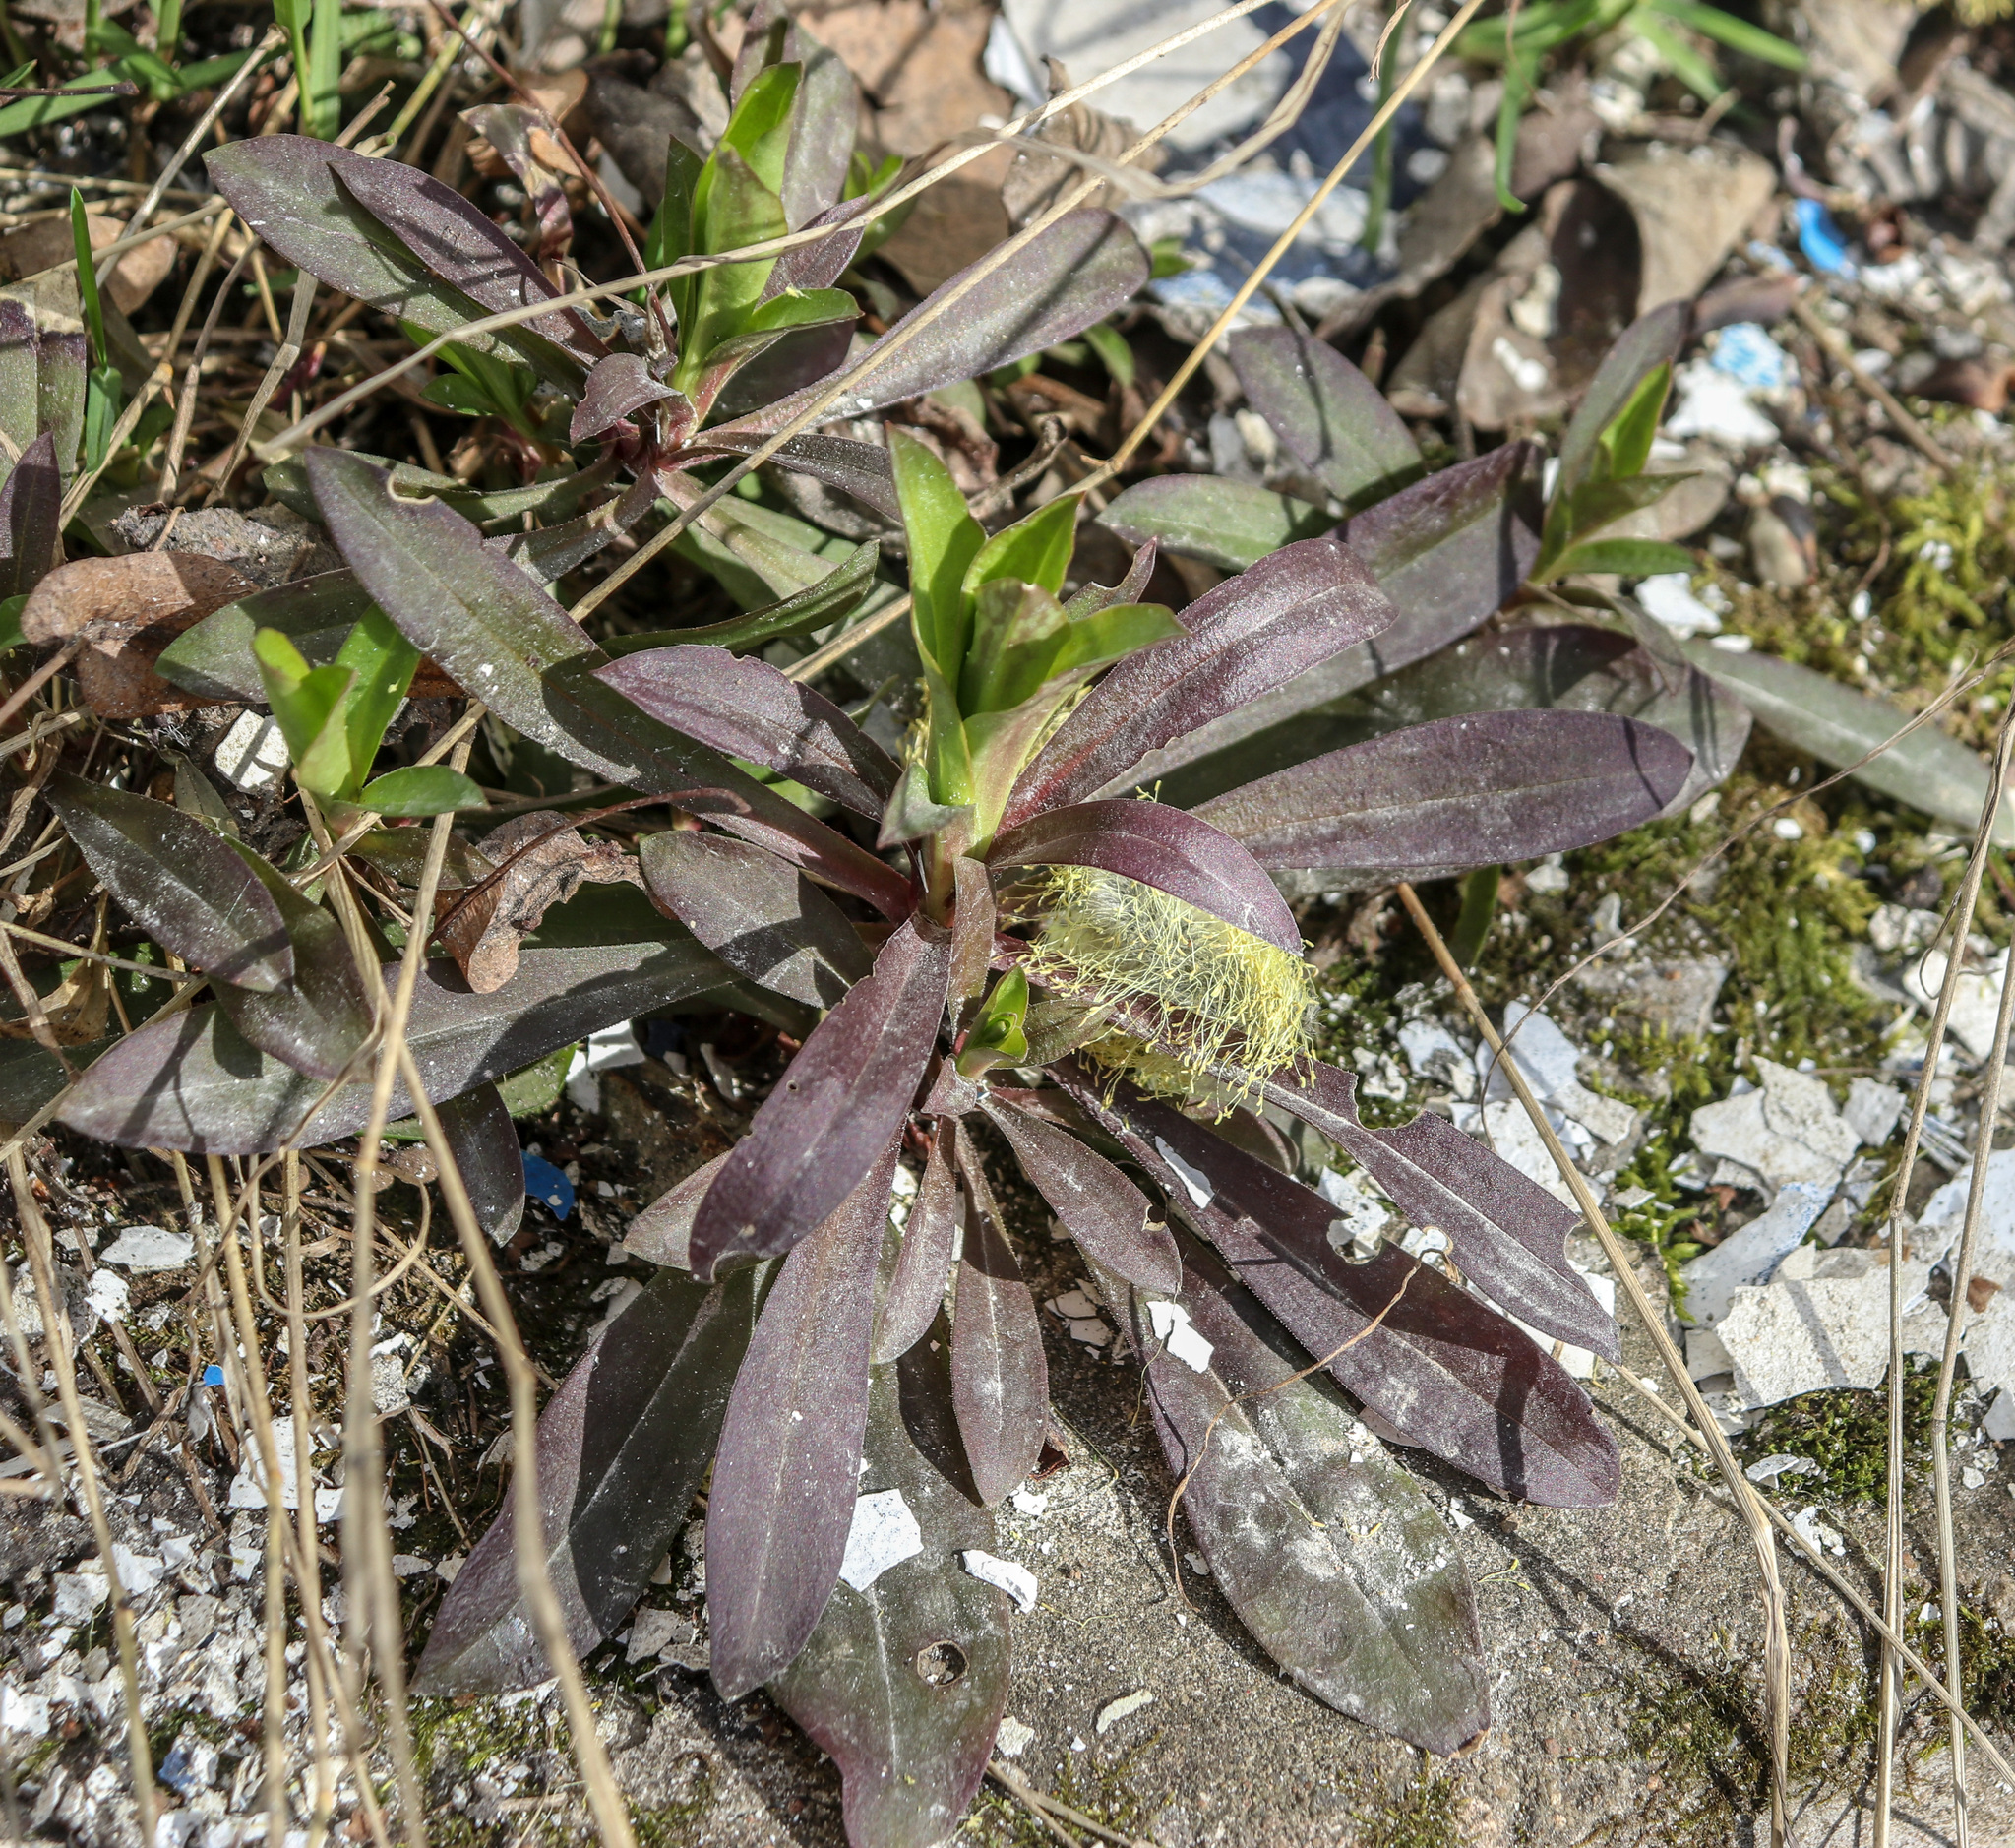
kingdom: Plantae
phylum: Tracheophyta
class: Magnoliopsida
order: Caryophyllales
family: Caryophyllaceae
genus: Dianthus
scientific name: Dianthus barbatus
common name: Sweet-william
